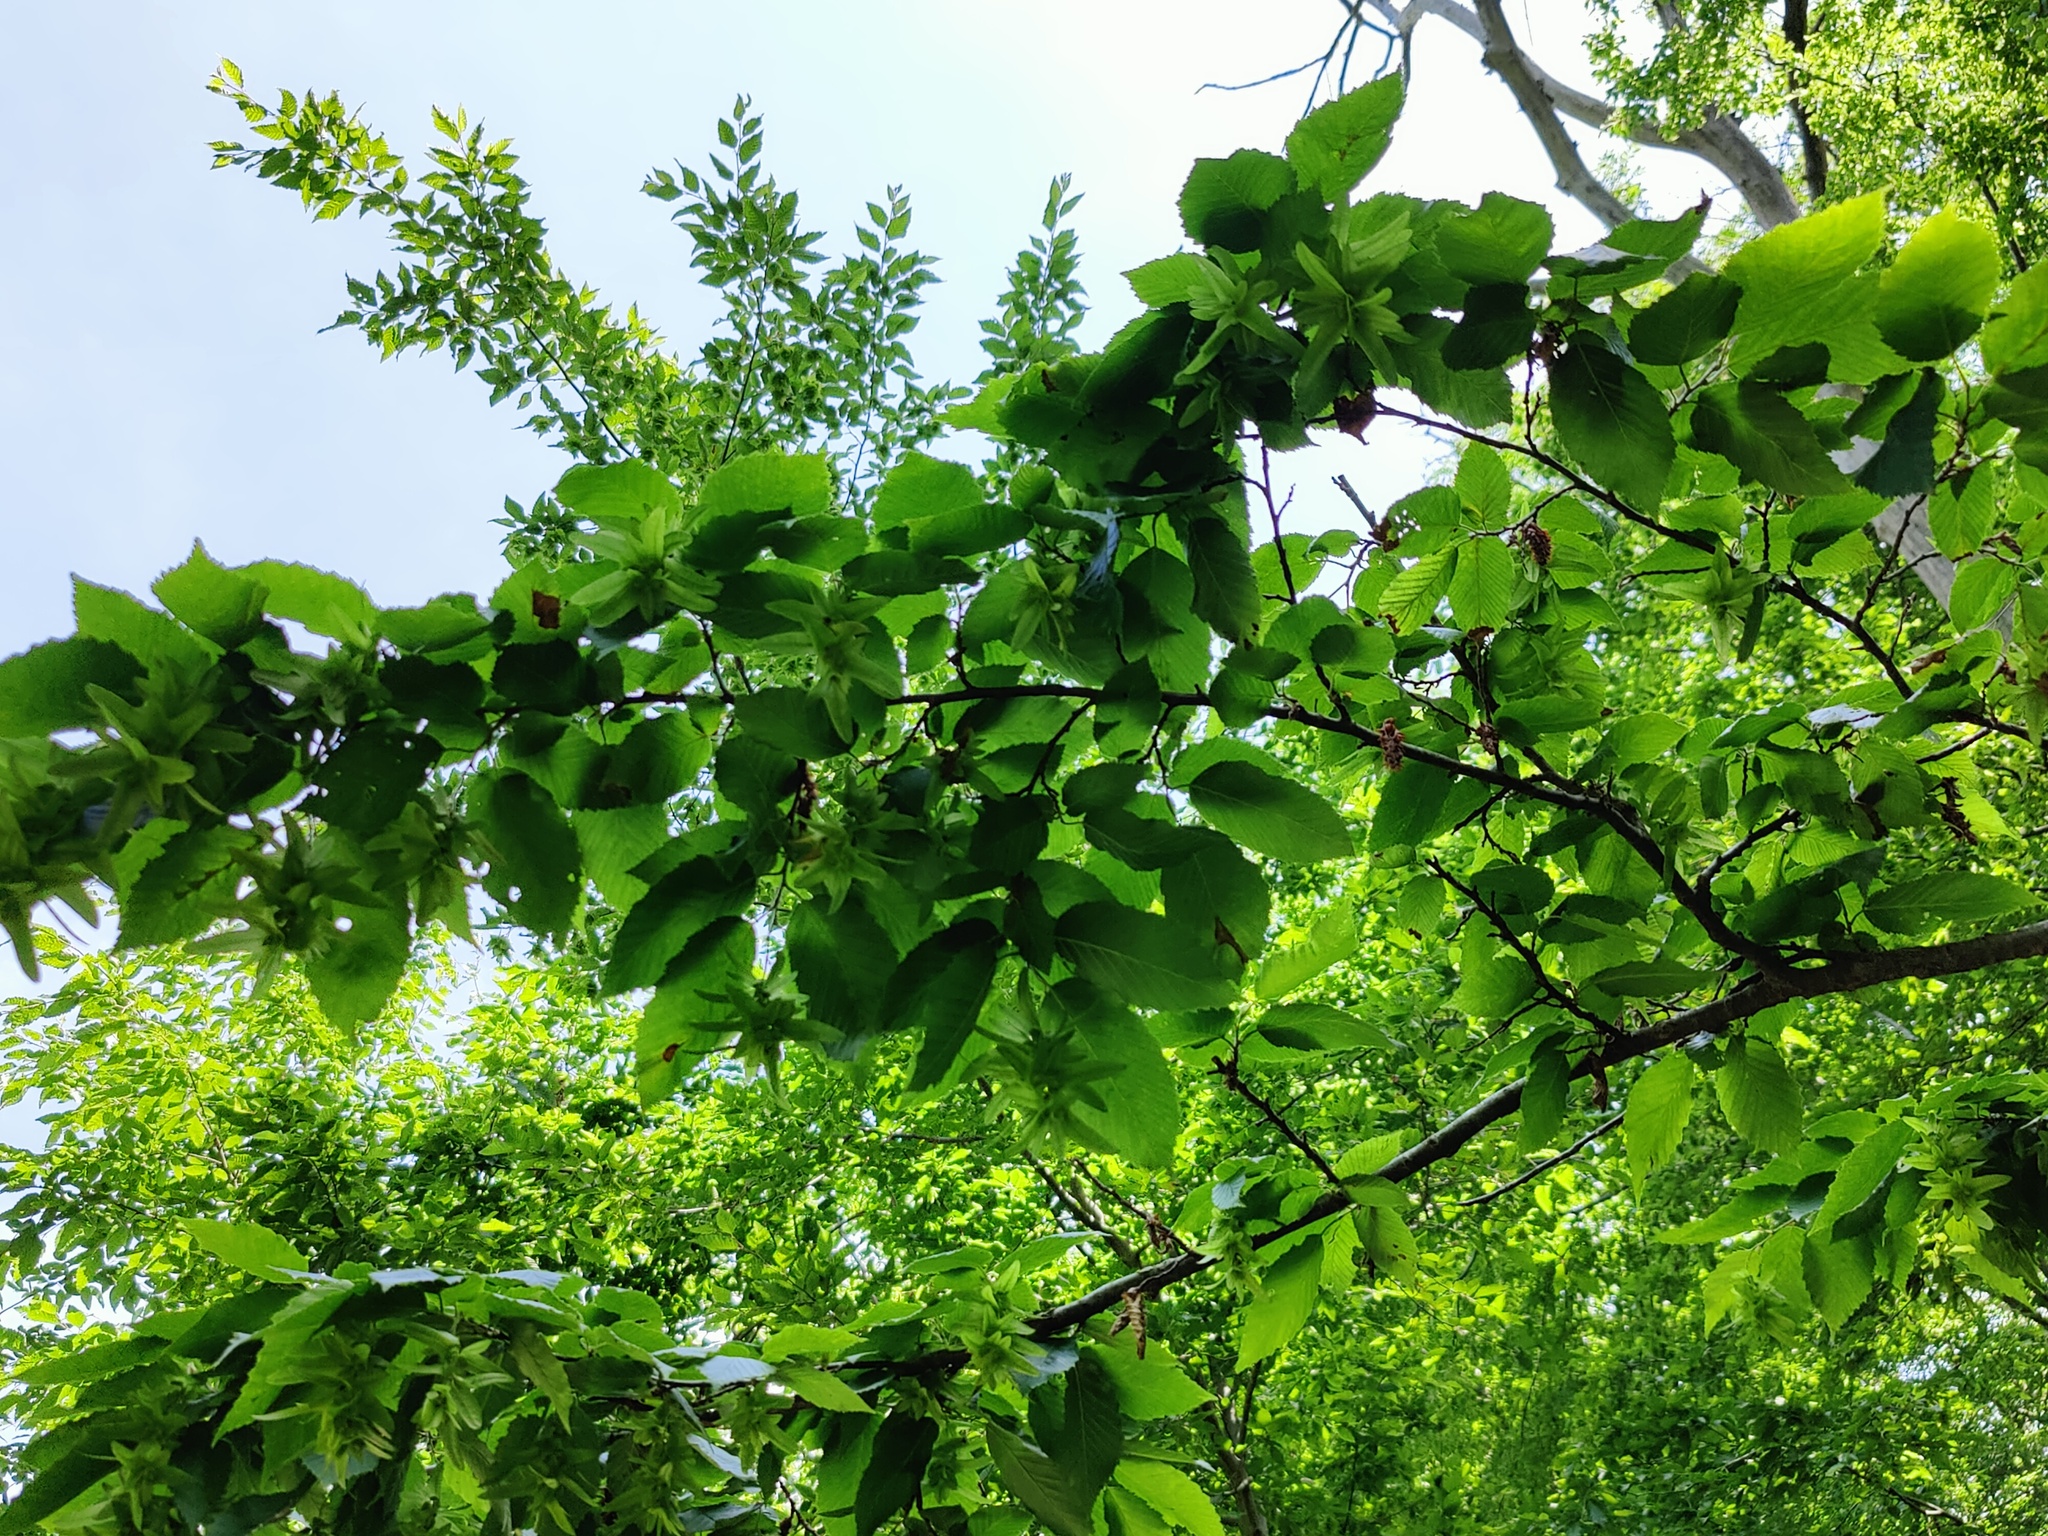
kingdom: Plantae
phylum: Tracheophyta
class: Magnoliopsida
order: Fagales
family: Betulaceae
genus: Carpinus
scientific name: Carpinus betulus
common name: Hornbeam
